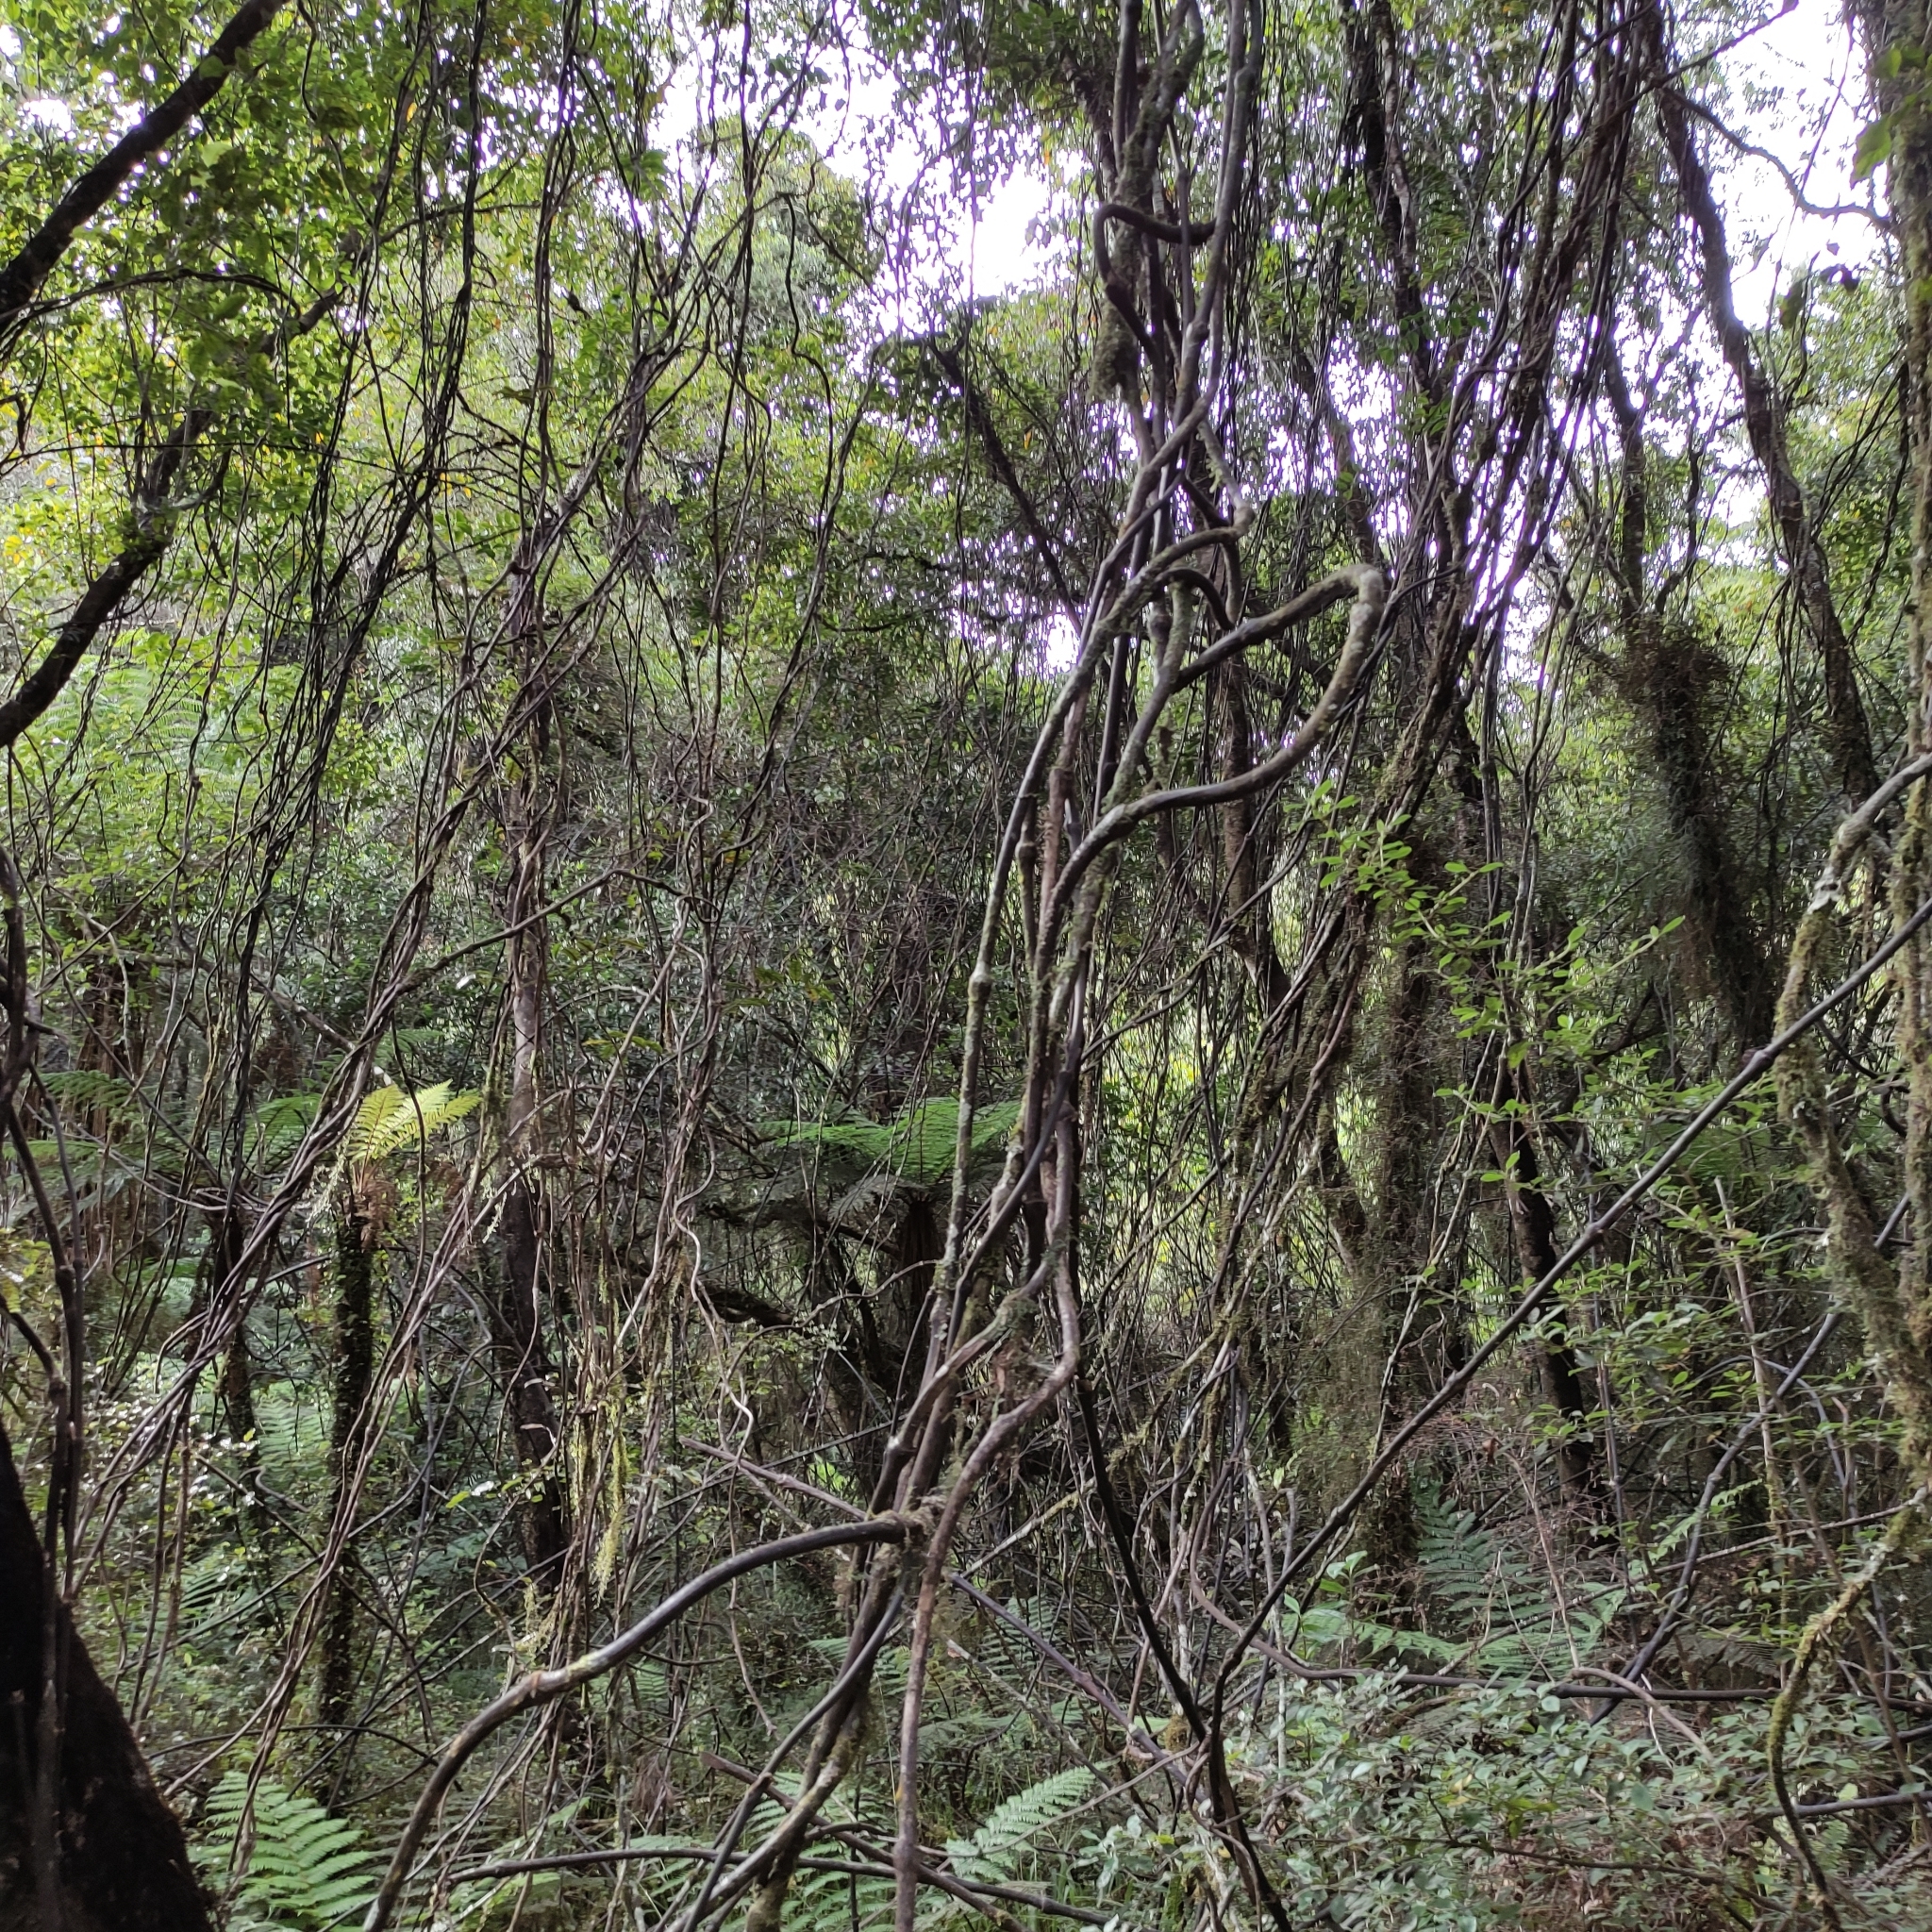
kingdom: Plantae
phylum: Tracheophyta
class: Liliopsida
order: Liliales
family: Ripogonaceae
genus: Ripogonum
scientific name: Ripogonum scandens
